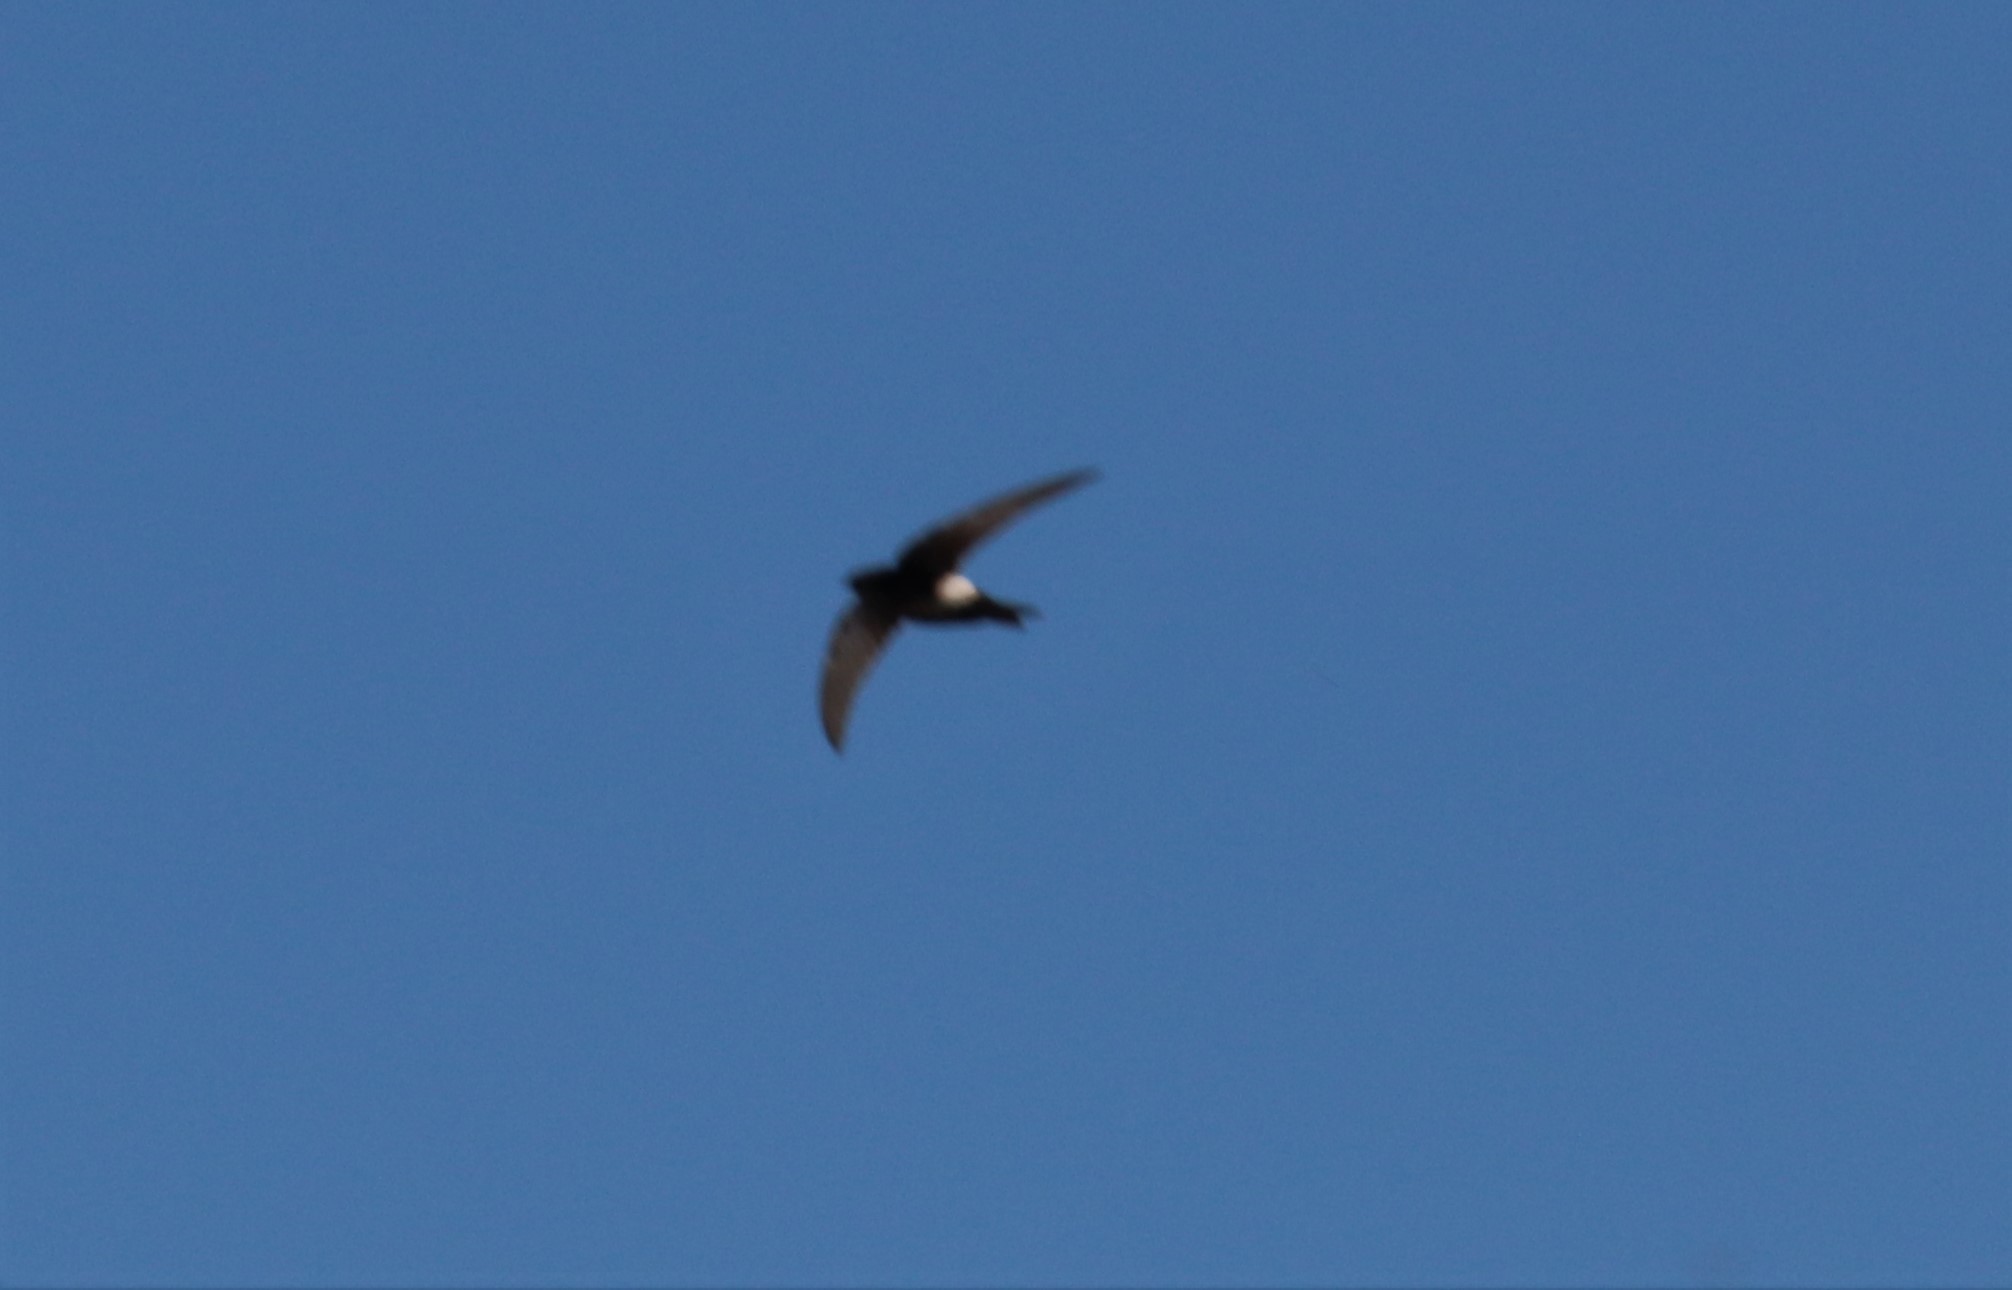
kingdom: Animalia
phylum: Chordata
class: Aves
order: Apodiformes
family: Apodidae
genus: Apus
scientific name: Apus horus
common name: Horus swift
